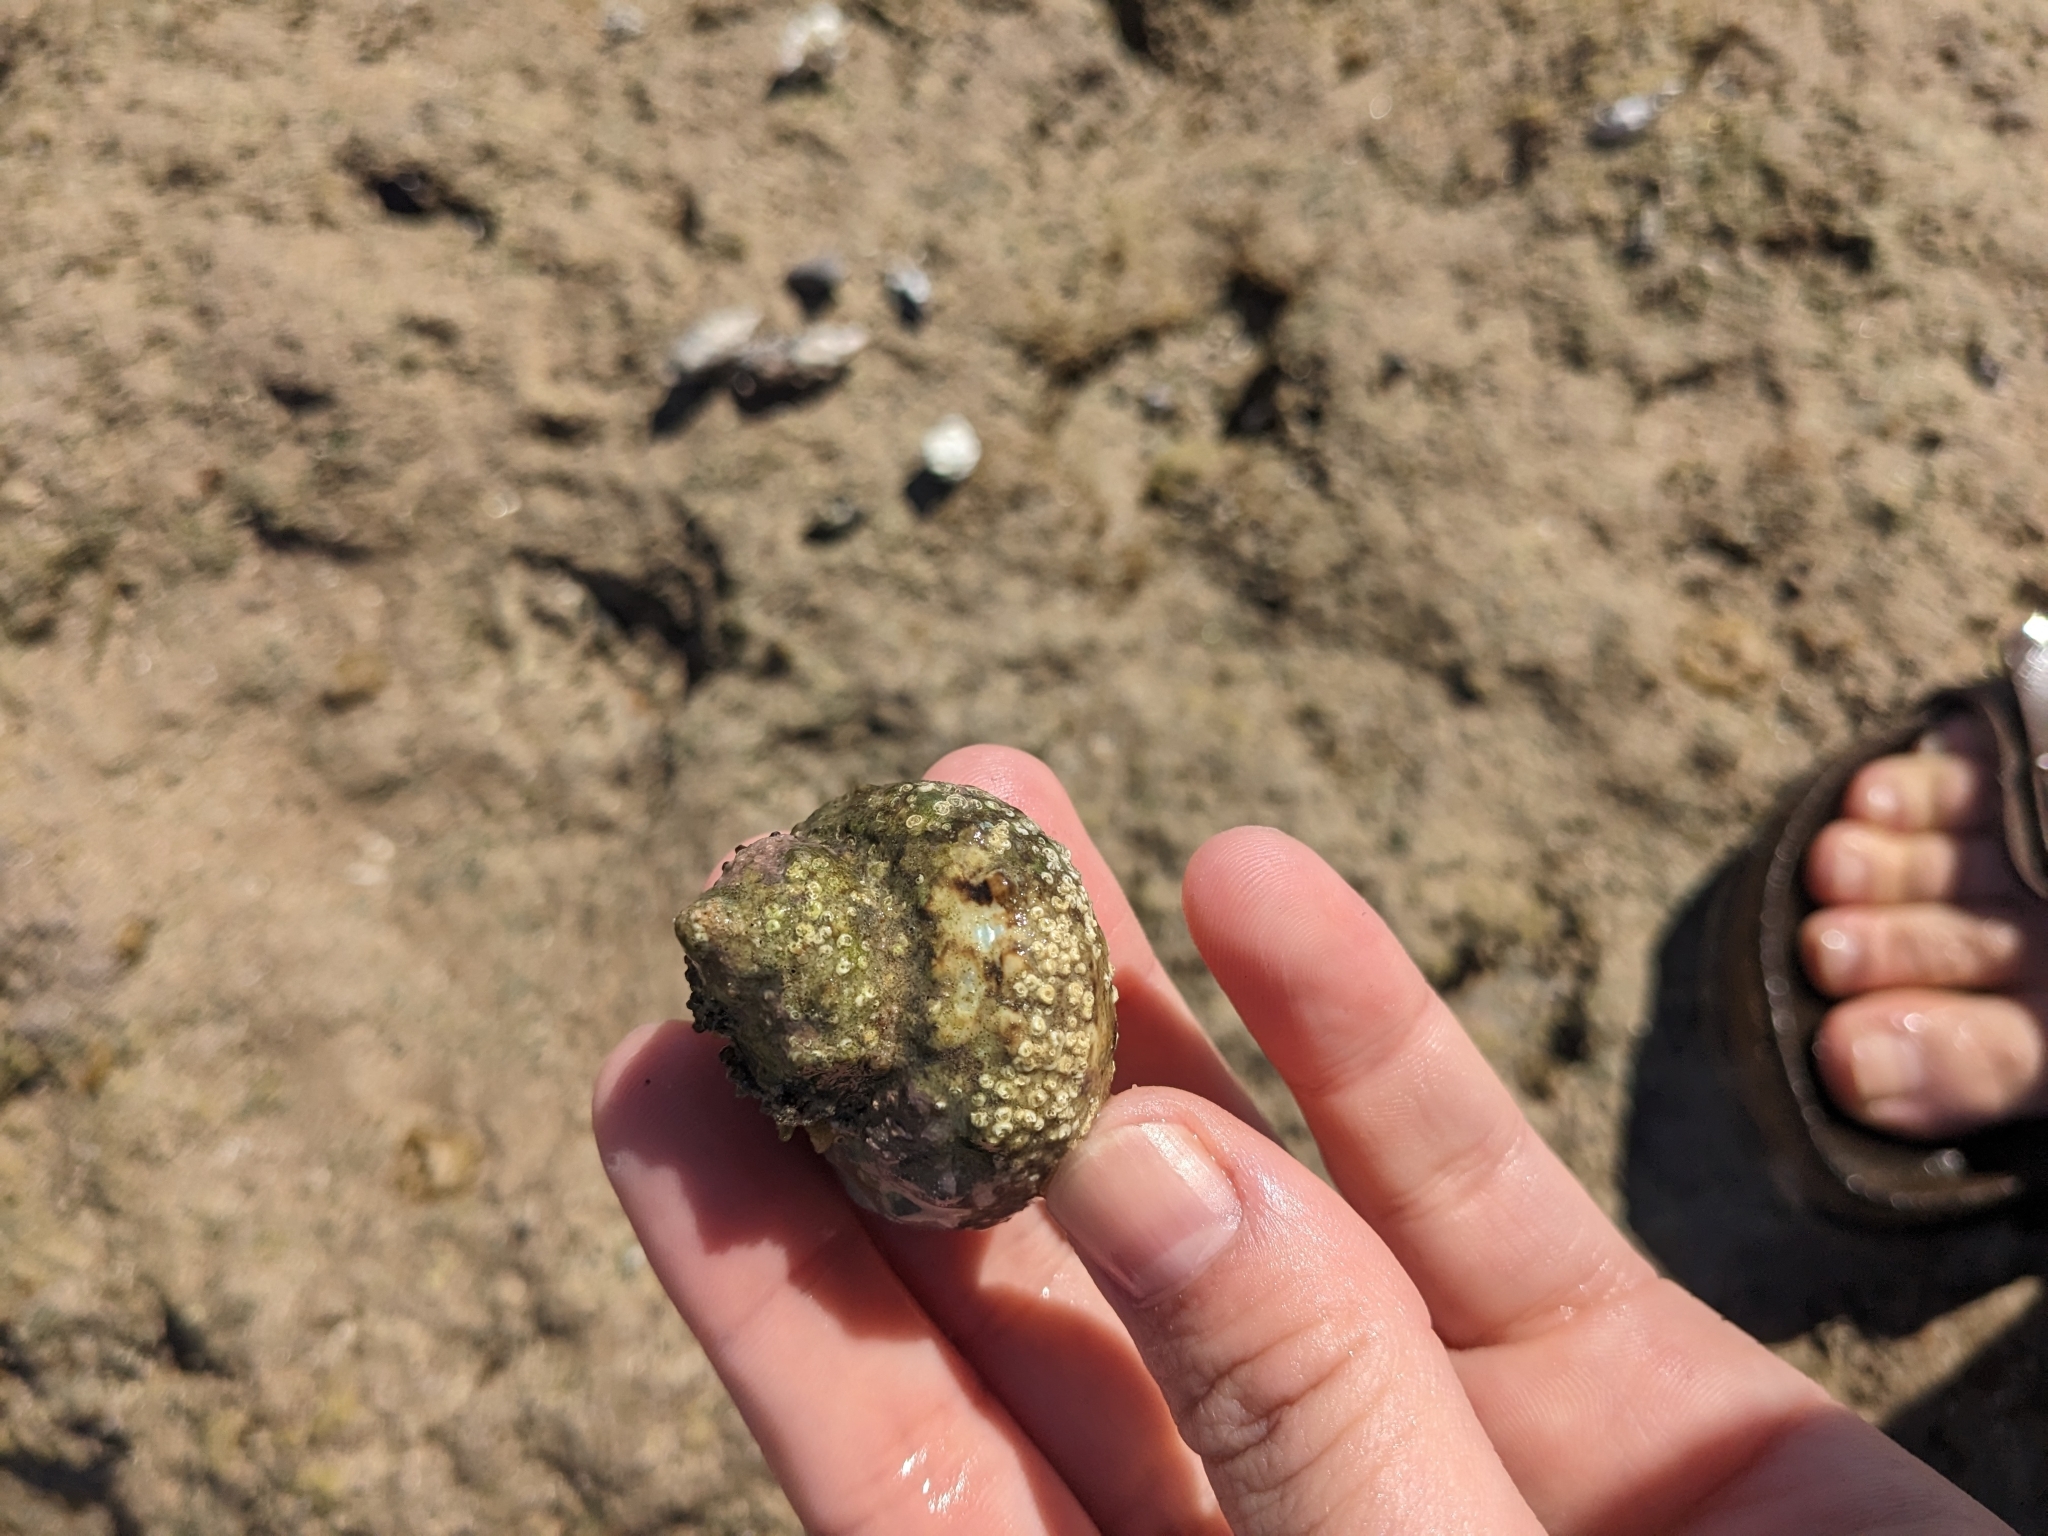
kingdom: Animalia
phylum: Mollusca
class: Gastropoda
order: Trochida
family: Turbinidae
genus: Turbo
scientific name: Turbo fluctuosus
